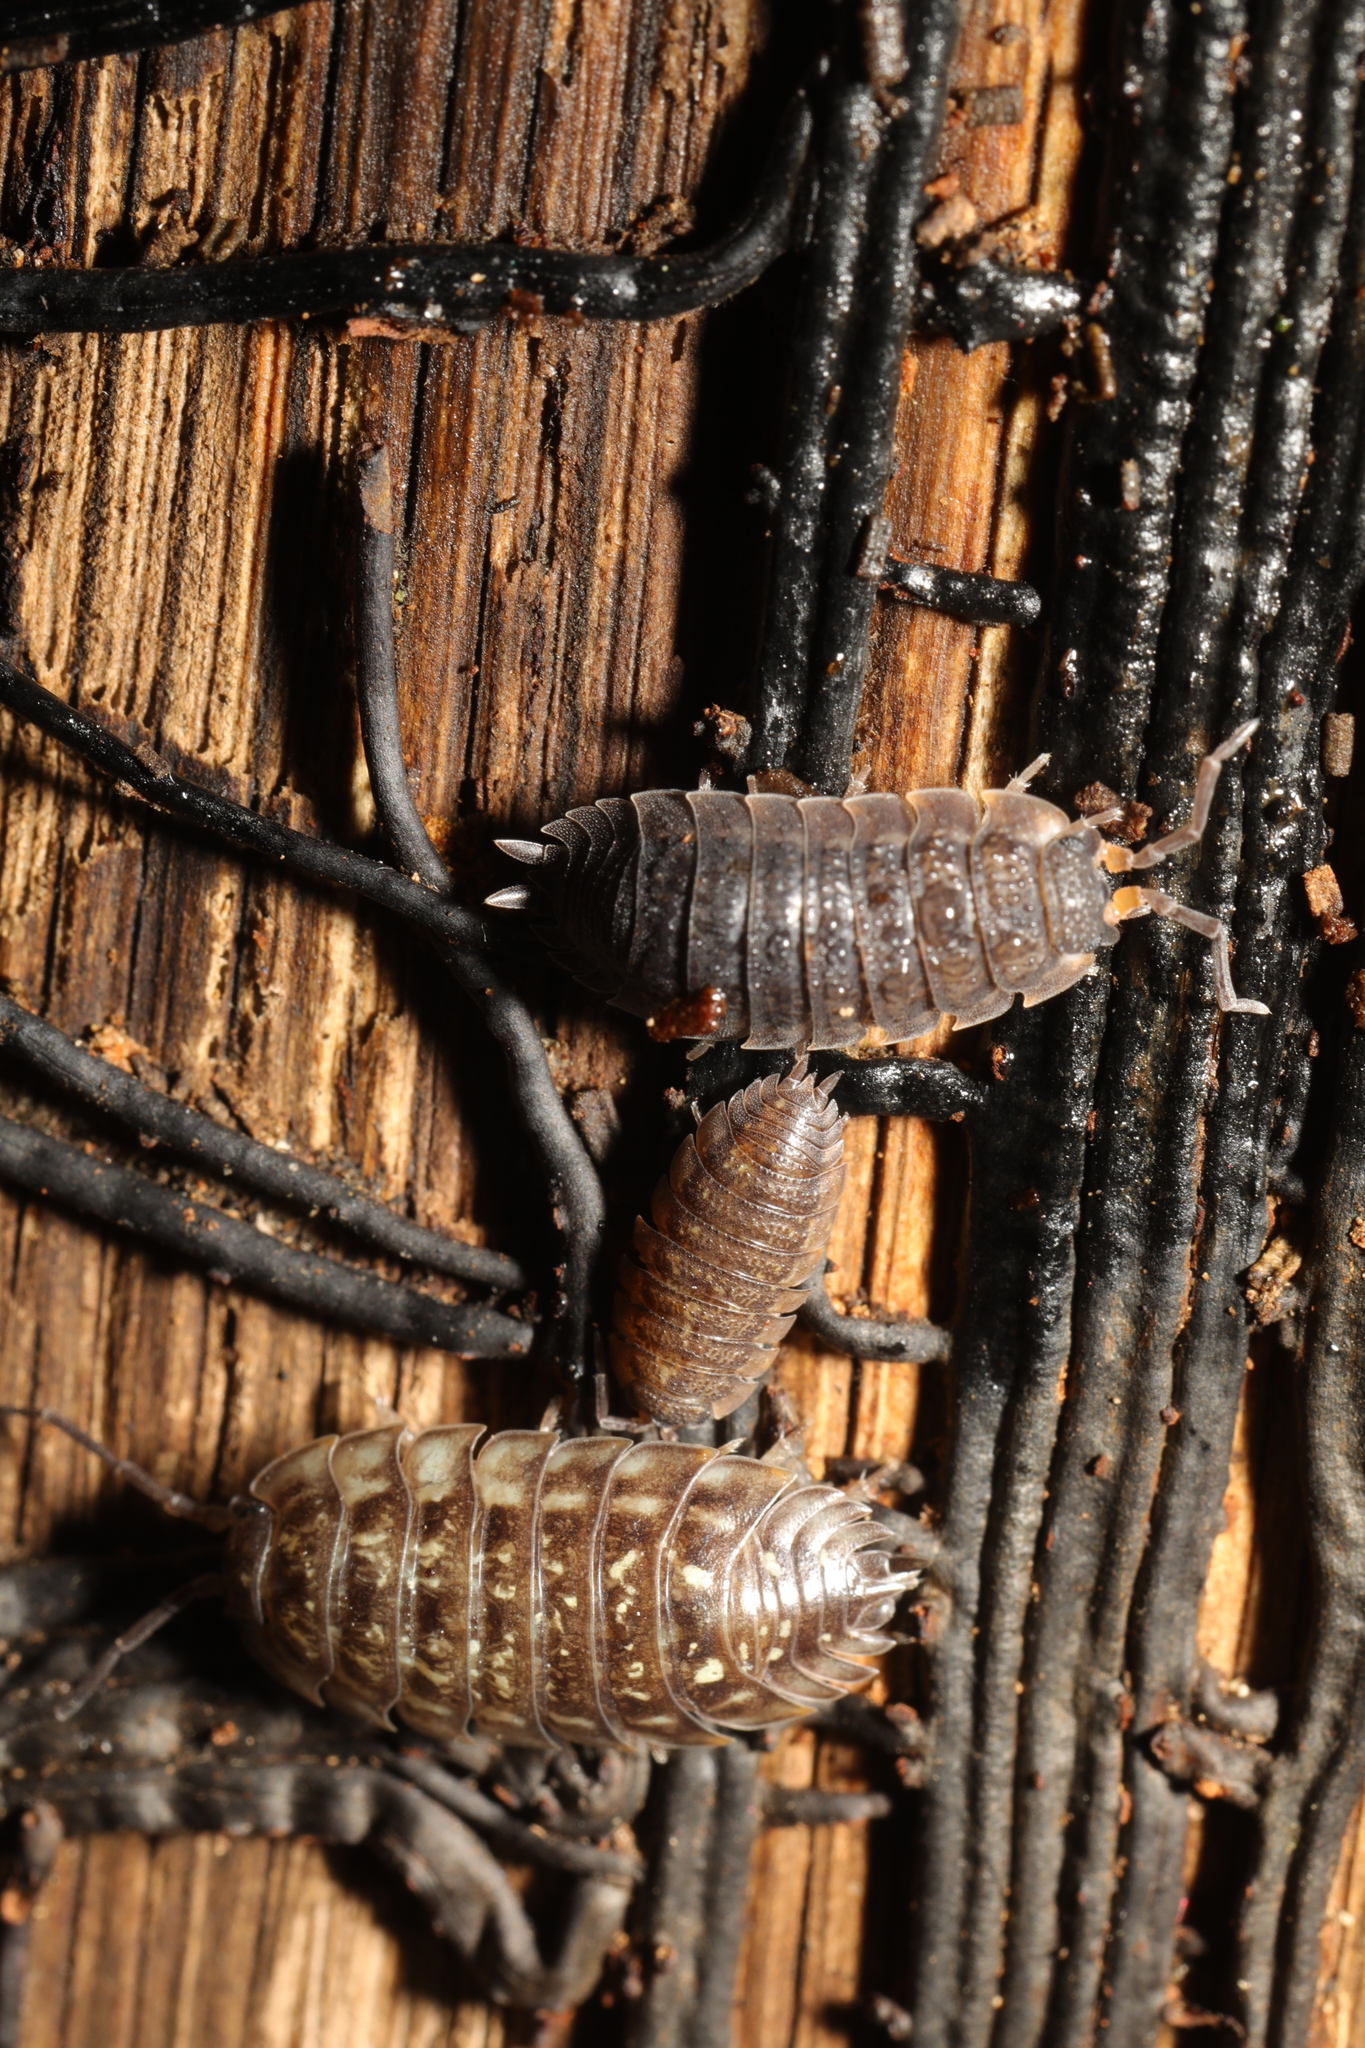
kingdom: Animalia
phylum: Arthropoda
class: Malacostraca
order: Isopoda
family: Porcellionidae
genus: Porcellio
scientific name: Porcellio scaber
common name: Common rough woodlouse
